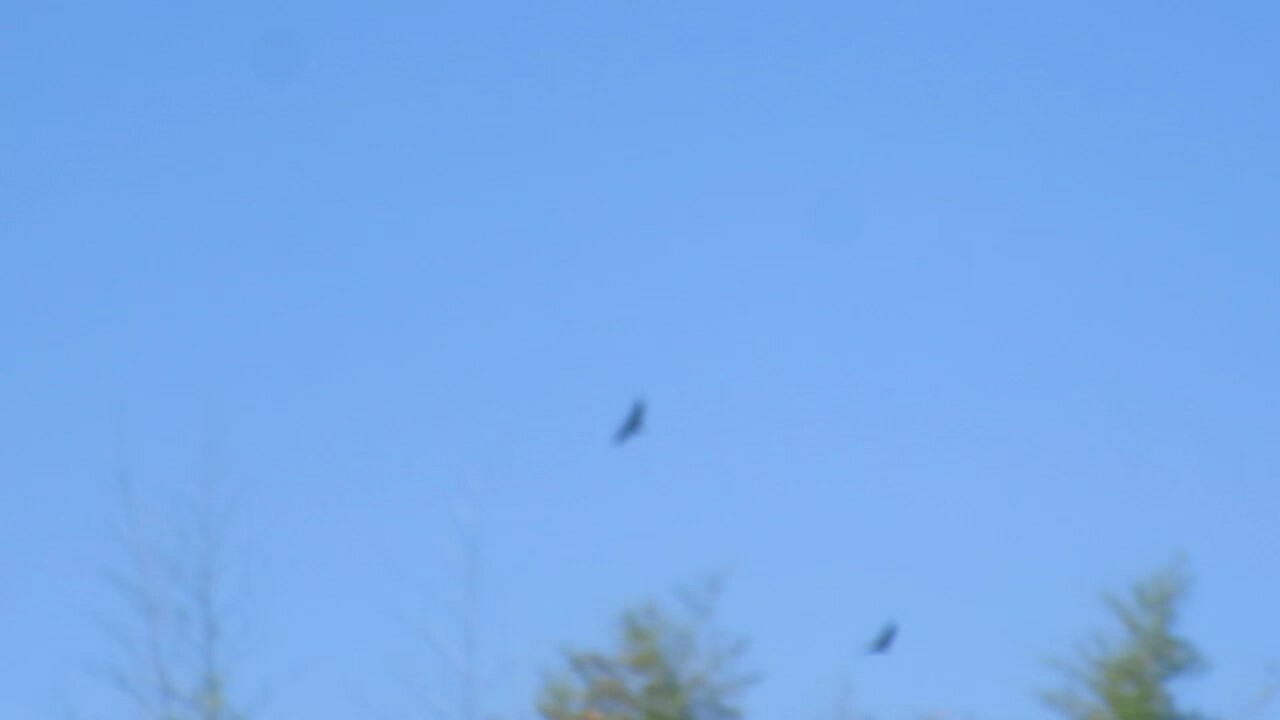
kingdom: Animalia
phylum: Chordata
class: Aves
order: Accipitriformes
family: Accipitridae
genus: Haliaeetus
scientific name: Haliaeetus leucocephalus
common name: Bald eagle
